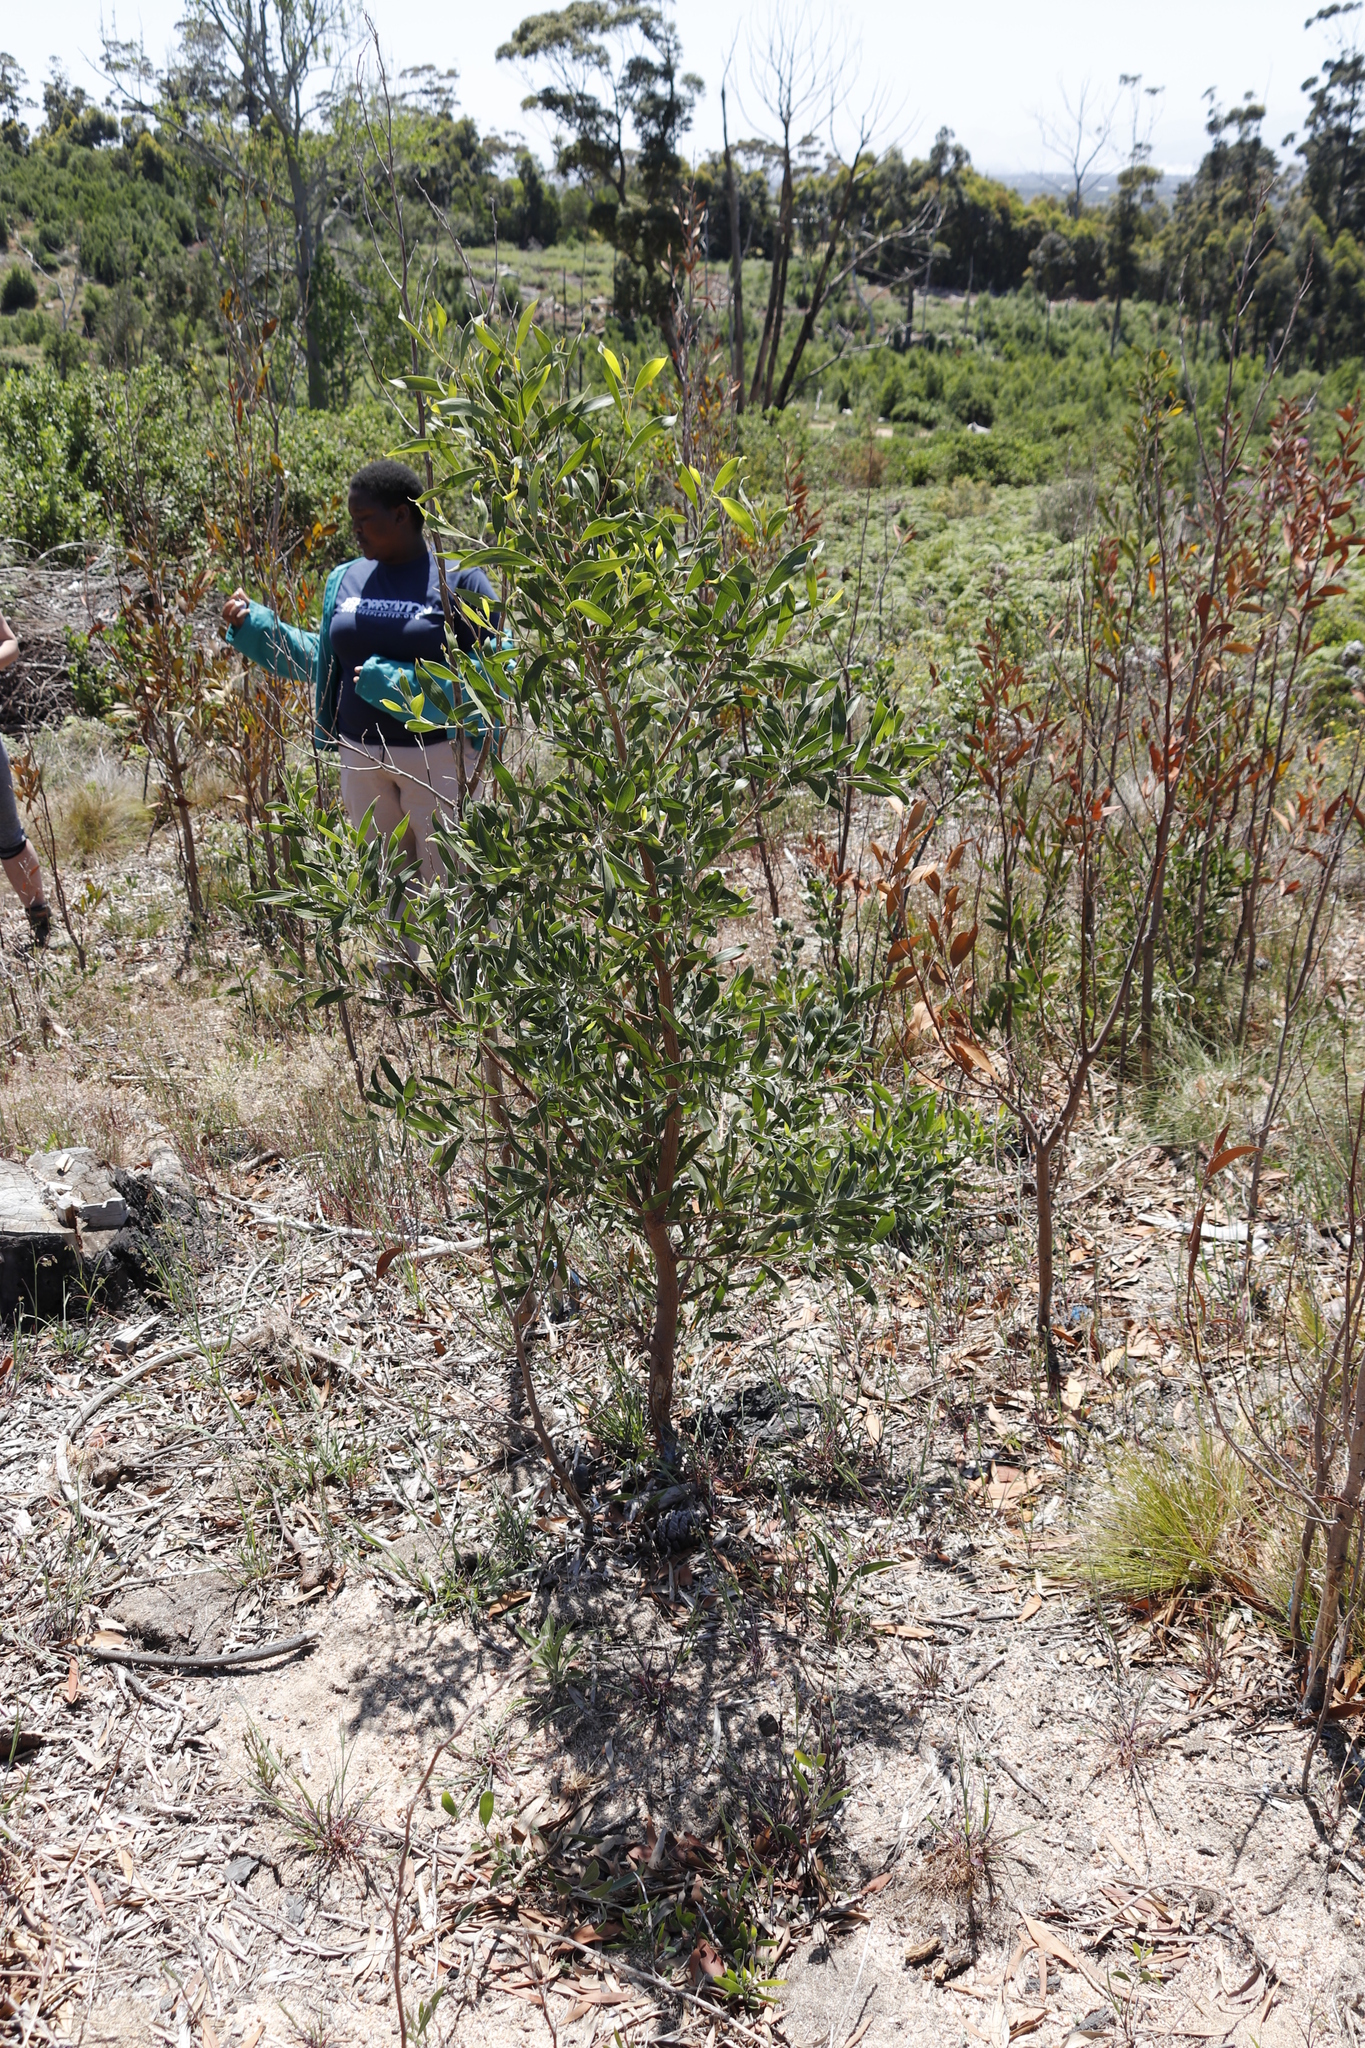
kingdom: Plantae
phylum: Tracheophyta
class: Magnoliopsida
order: Fabales
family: Fabaceae
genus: Acacia
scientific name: Acacia melanoxylon
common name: Blackwood
